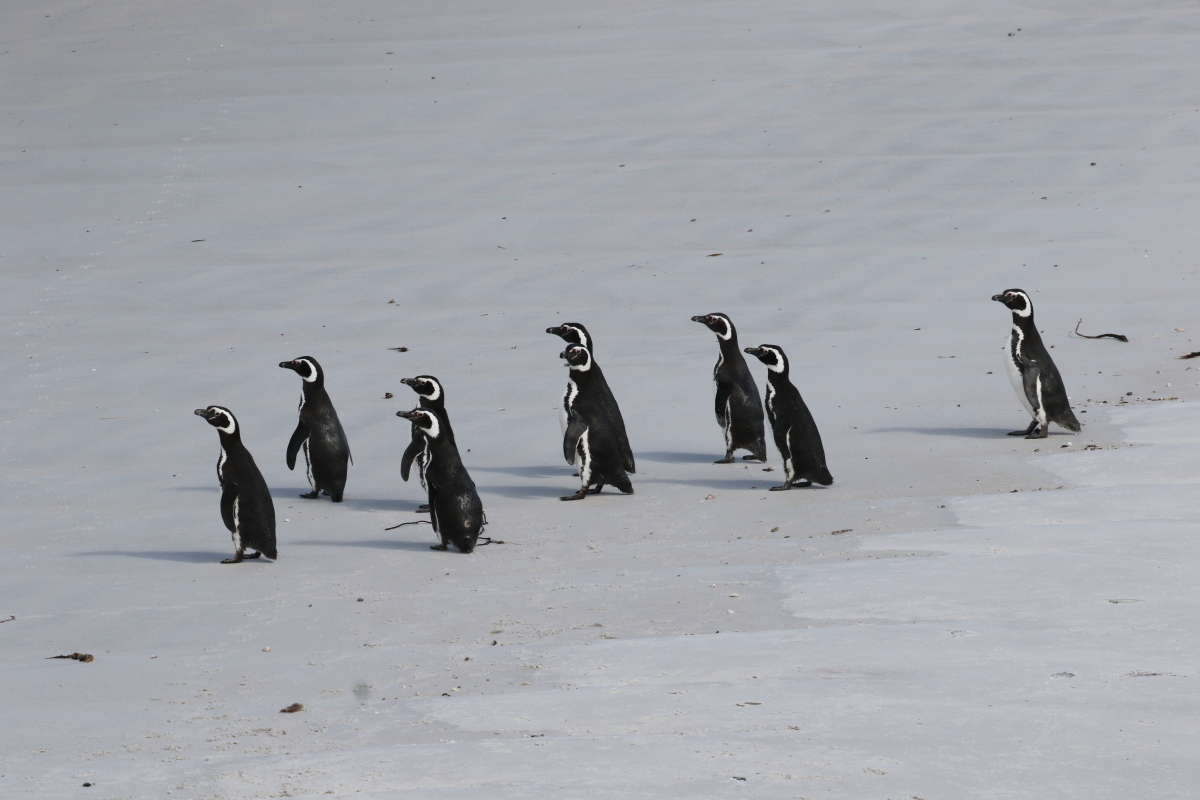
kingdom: Animalia
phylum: Chordata
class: Aves
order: Sphenisciformes
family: Spheniscidae
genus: Spheniscus
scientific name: Spheniscus magellanicus
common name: Magellanic penguin
